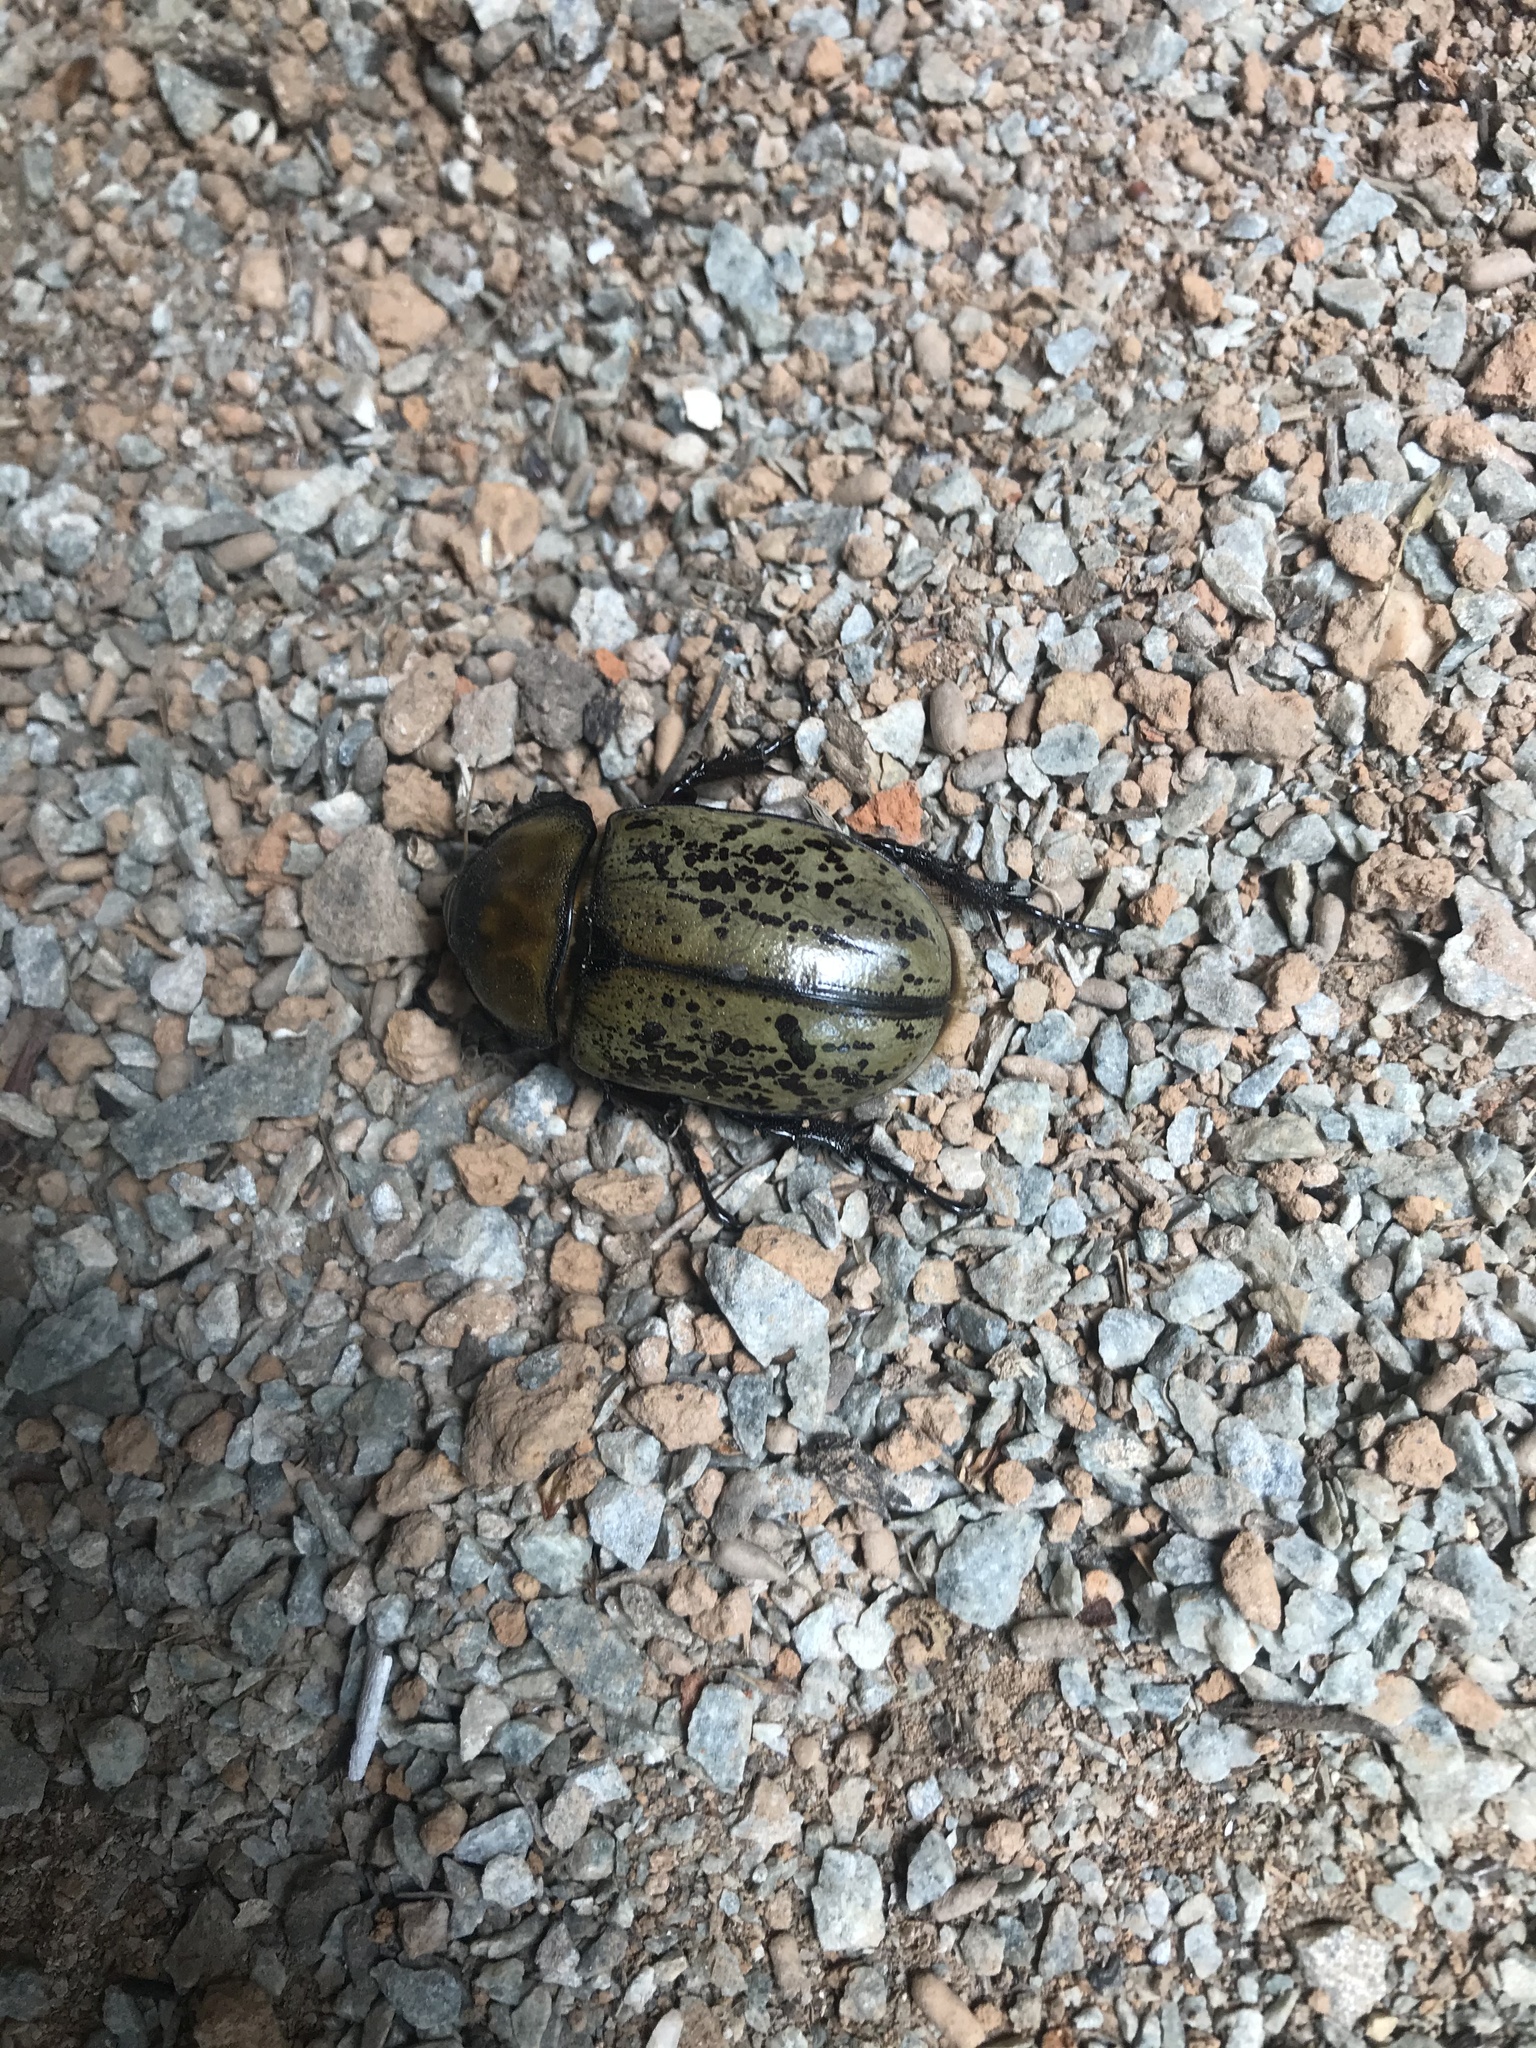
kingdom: Animalia
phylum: Arthropoda
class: Insecta
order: Coleoptera
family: Scarabaeidae
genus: Dynastes
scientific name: Dynastes tityus
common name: Eastern hercules beetle
